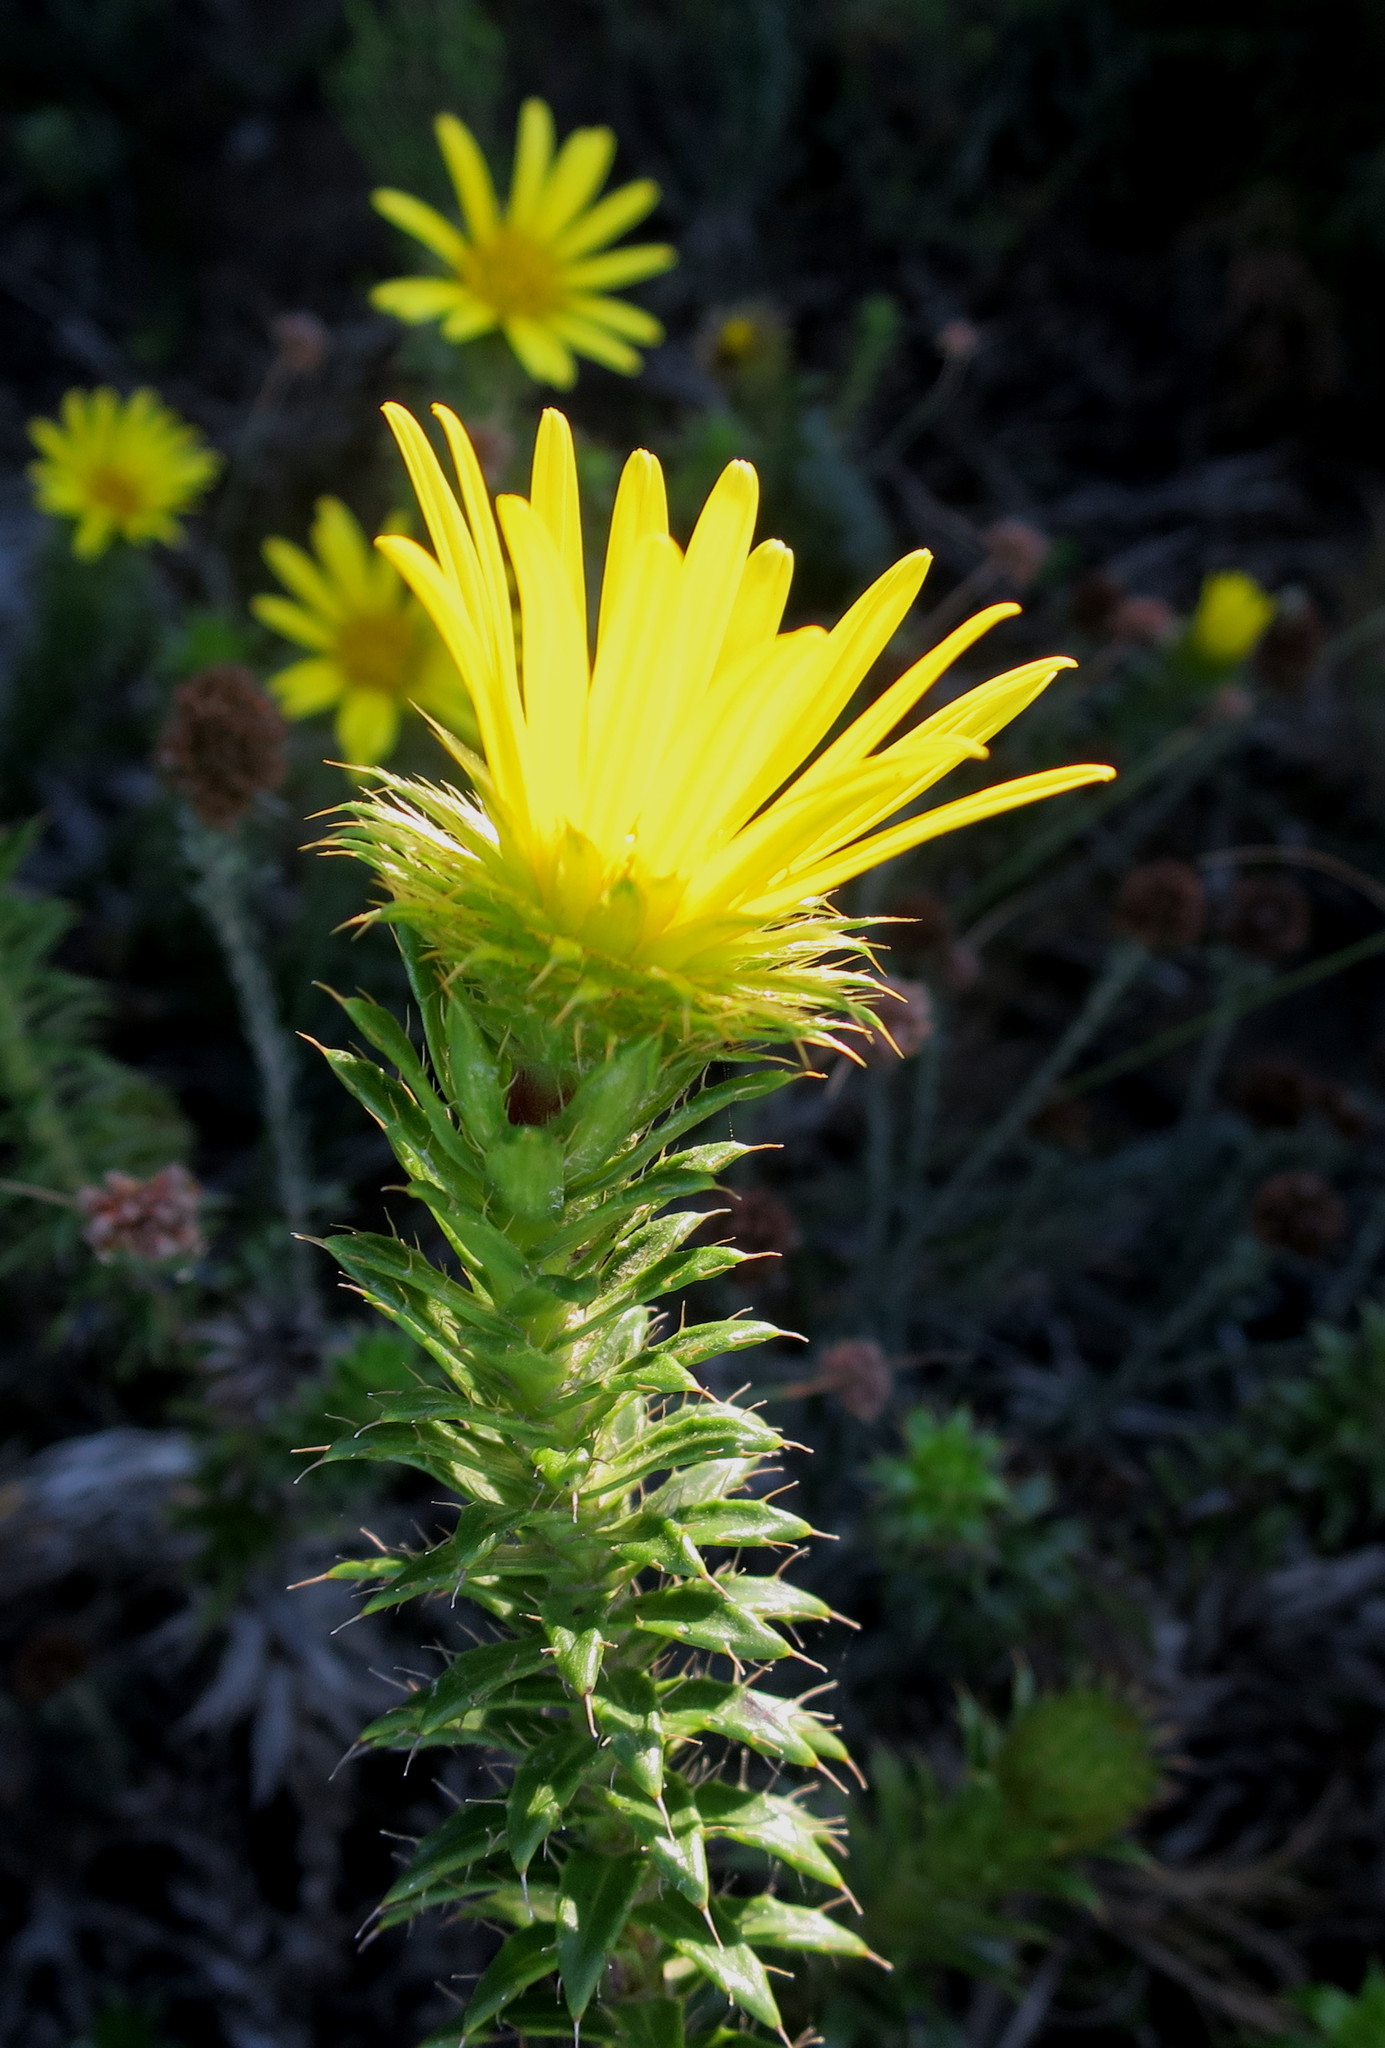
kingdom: Plantae
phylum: Tracheophyta
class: Magnoliopsida
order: Asterales
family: Asteraceae
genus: Cullumia
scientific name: Cullumia carlinoides
